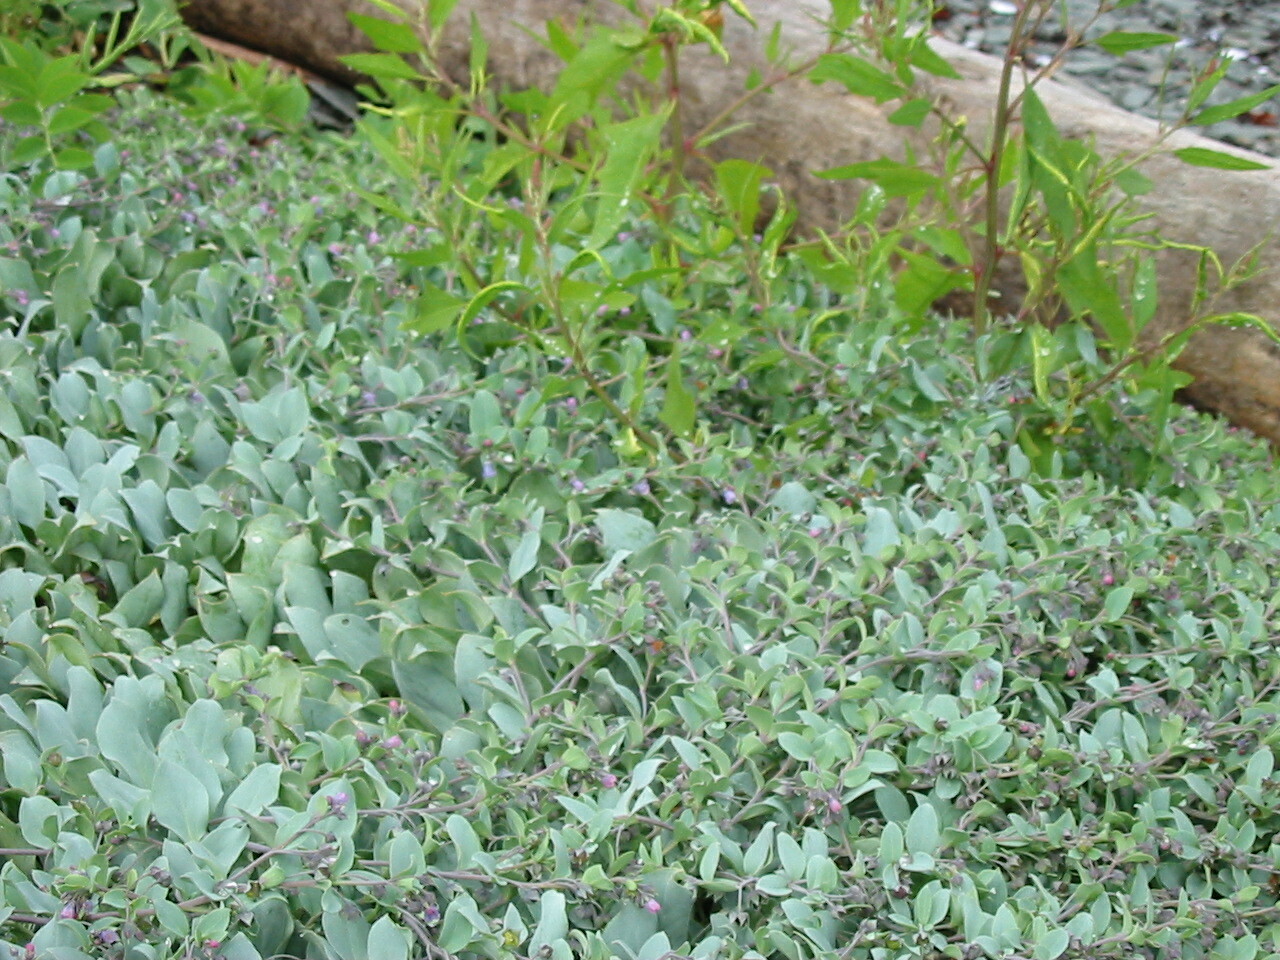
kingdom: Plantae
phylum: Tracheophyta
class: Magnoliopsida
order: Boraginales
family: Boraginaceae
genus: Mertensia
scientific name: Mertensia maritima
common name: Oysterplant
